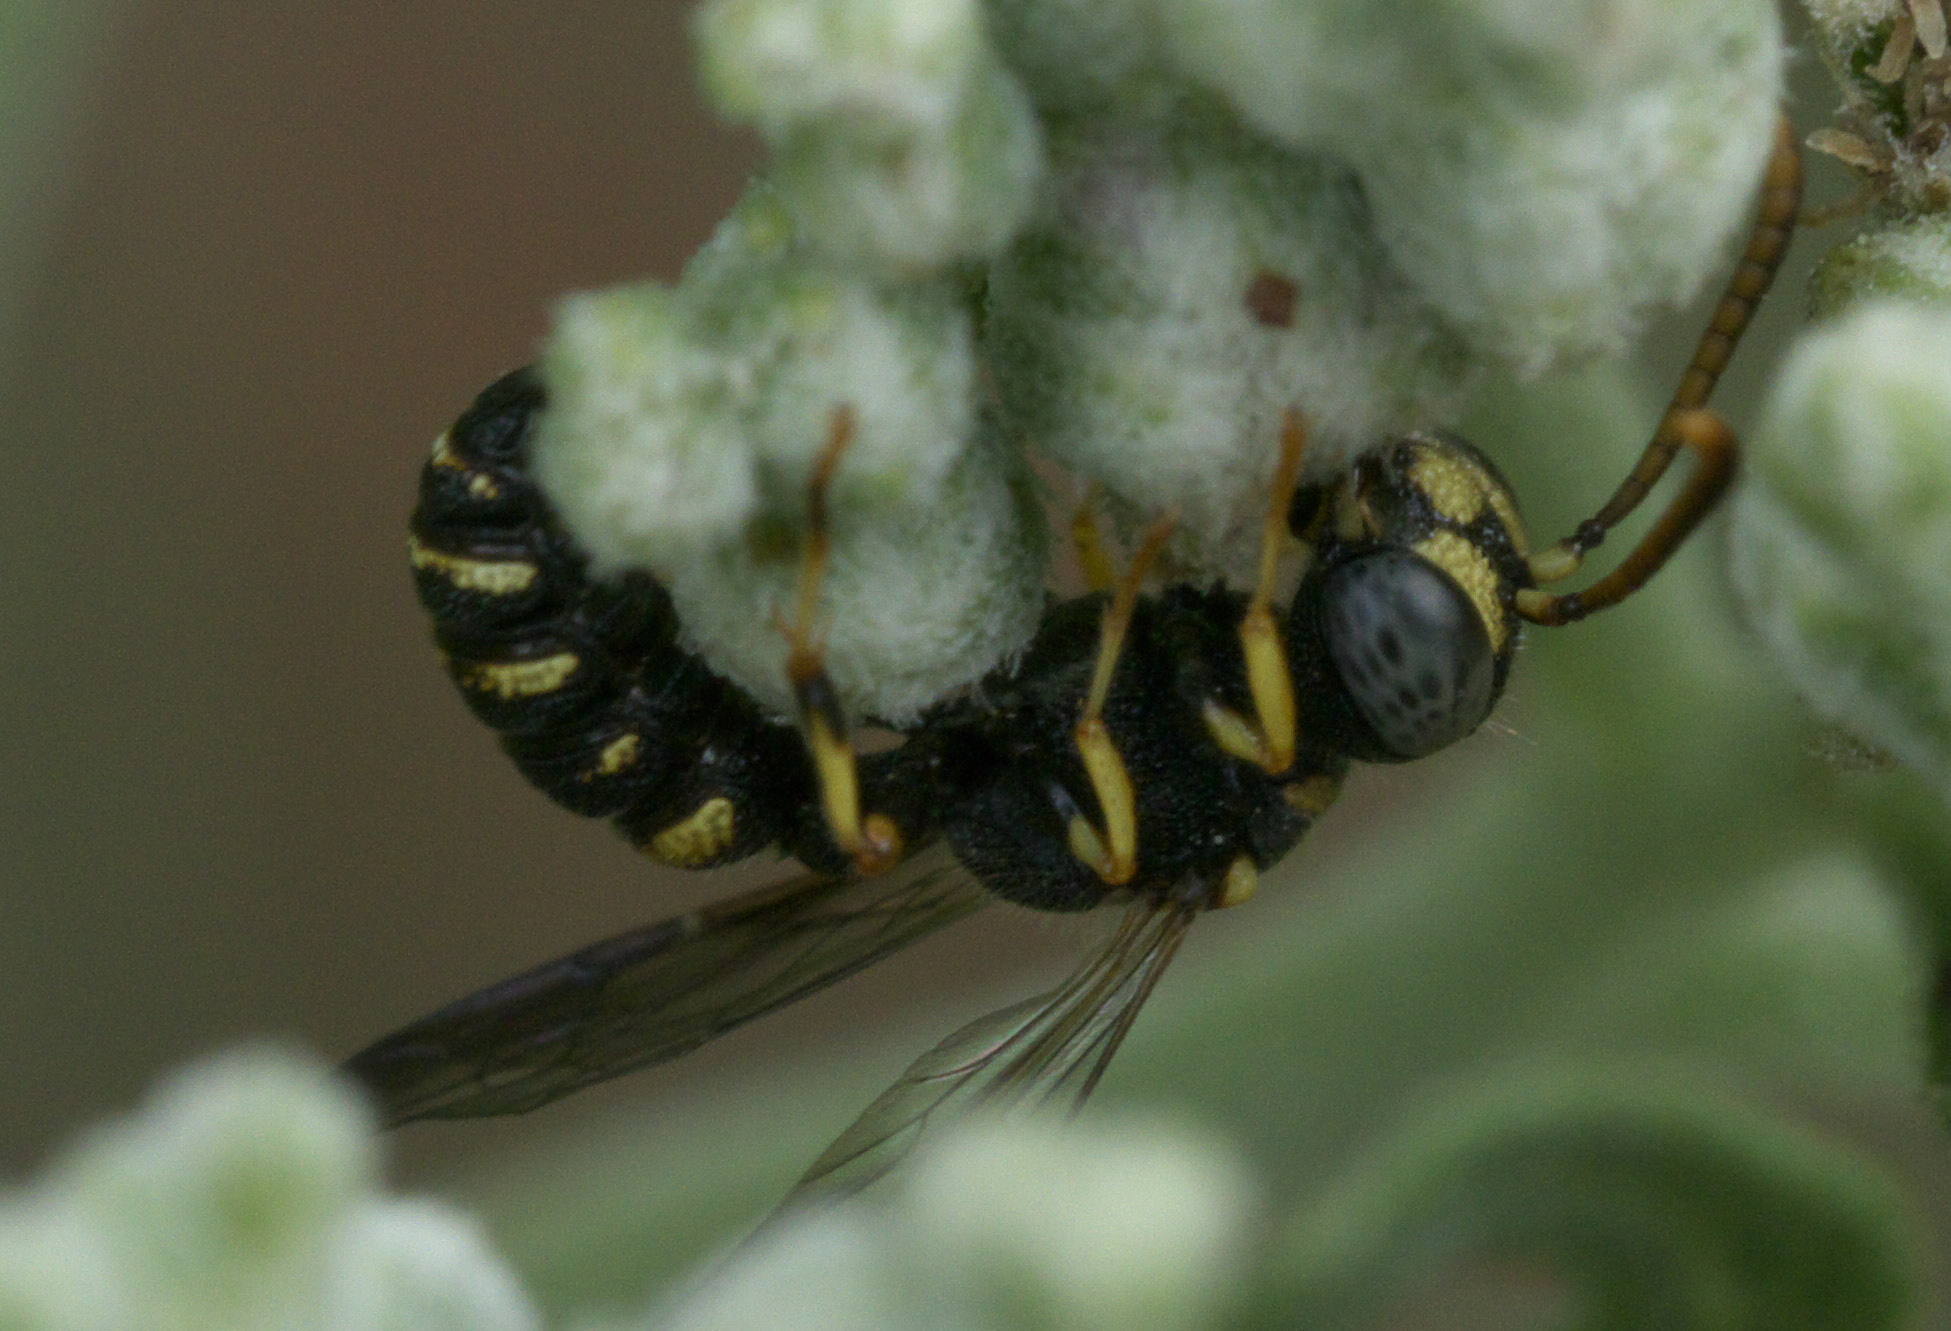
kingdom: Animalia
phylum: Arthropoda
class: Insecta
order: Hymenoptera
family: Crabronidae
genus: Cerceris
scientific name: Cerceris kennicottii
